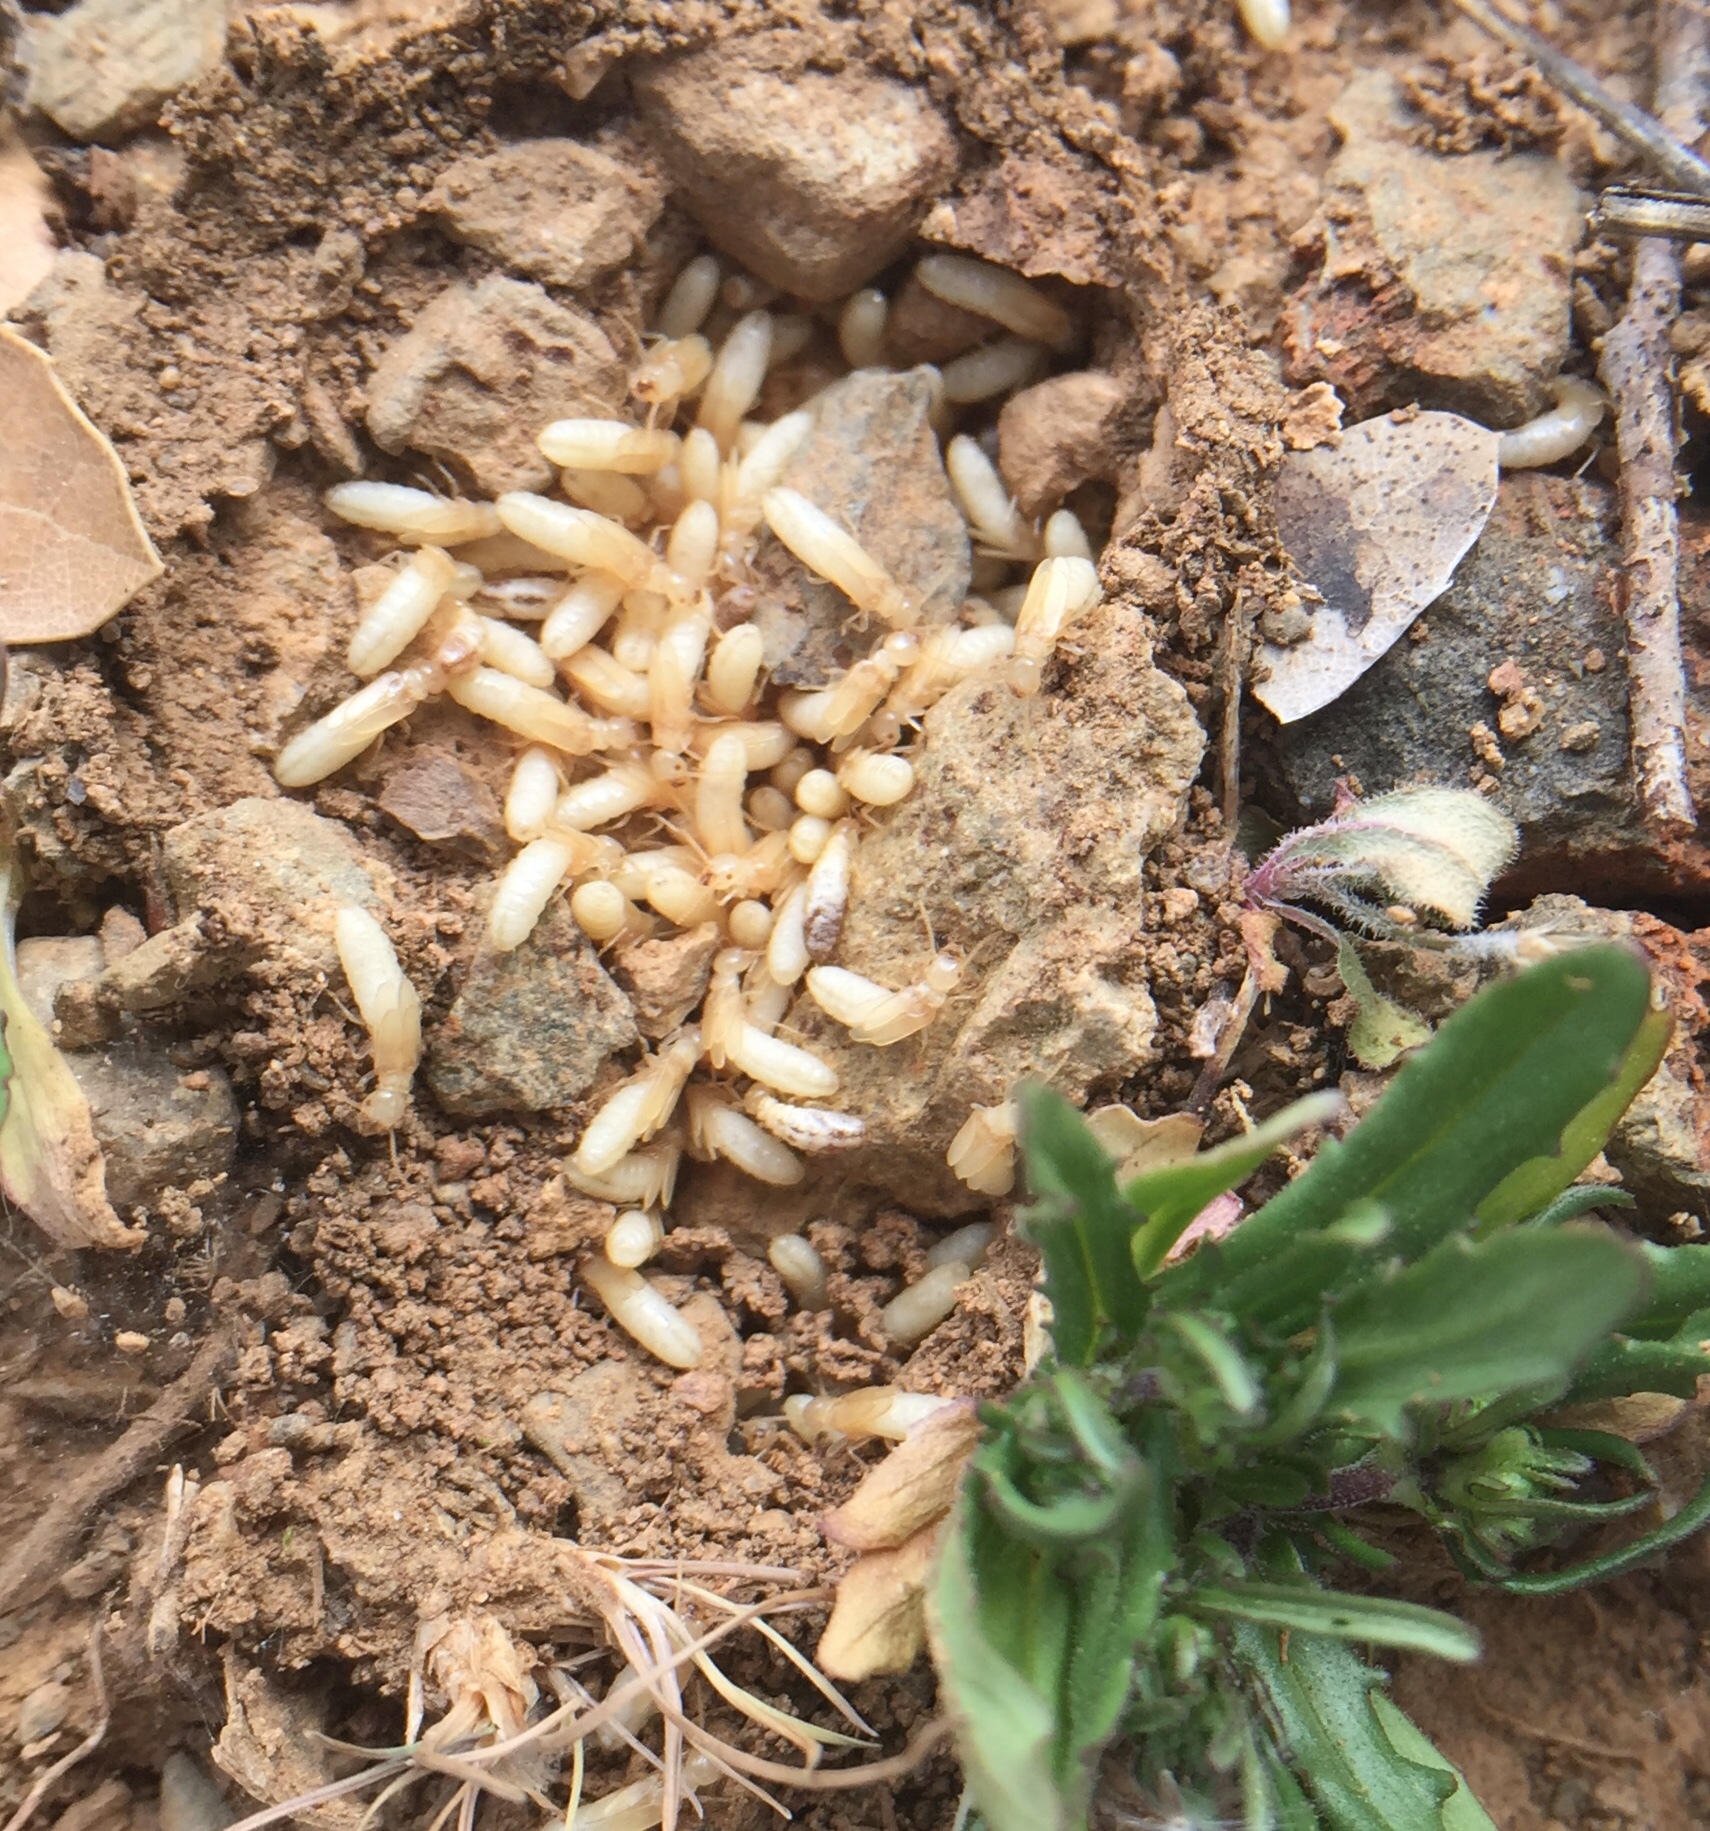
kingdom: Animalia
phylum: Arthropoda
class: Insecta
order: Blattodea
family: Rhinotermitidae
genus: Reticulitermes
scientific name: Reticulitermes
